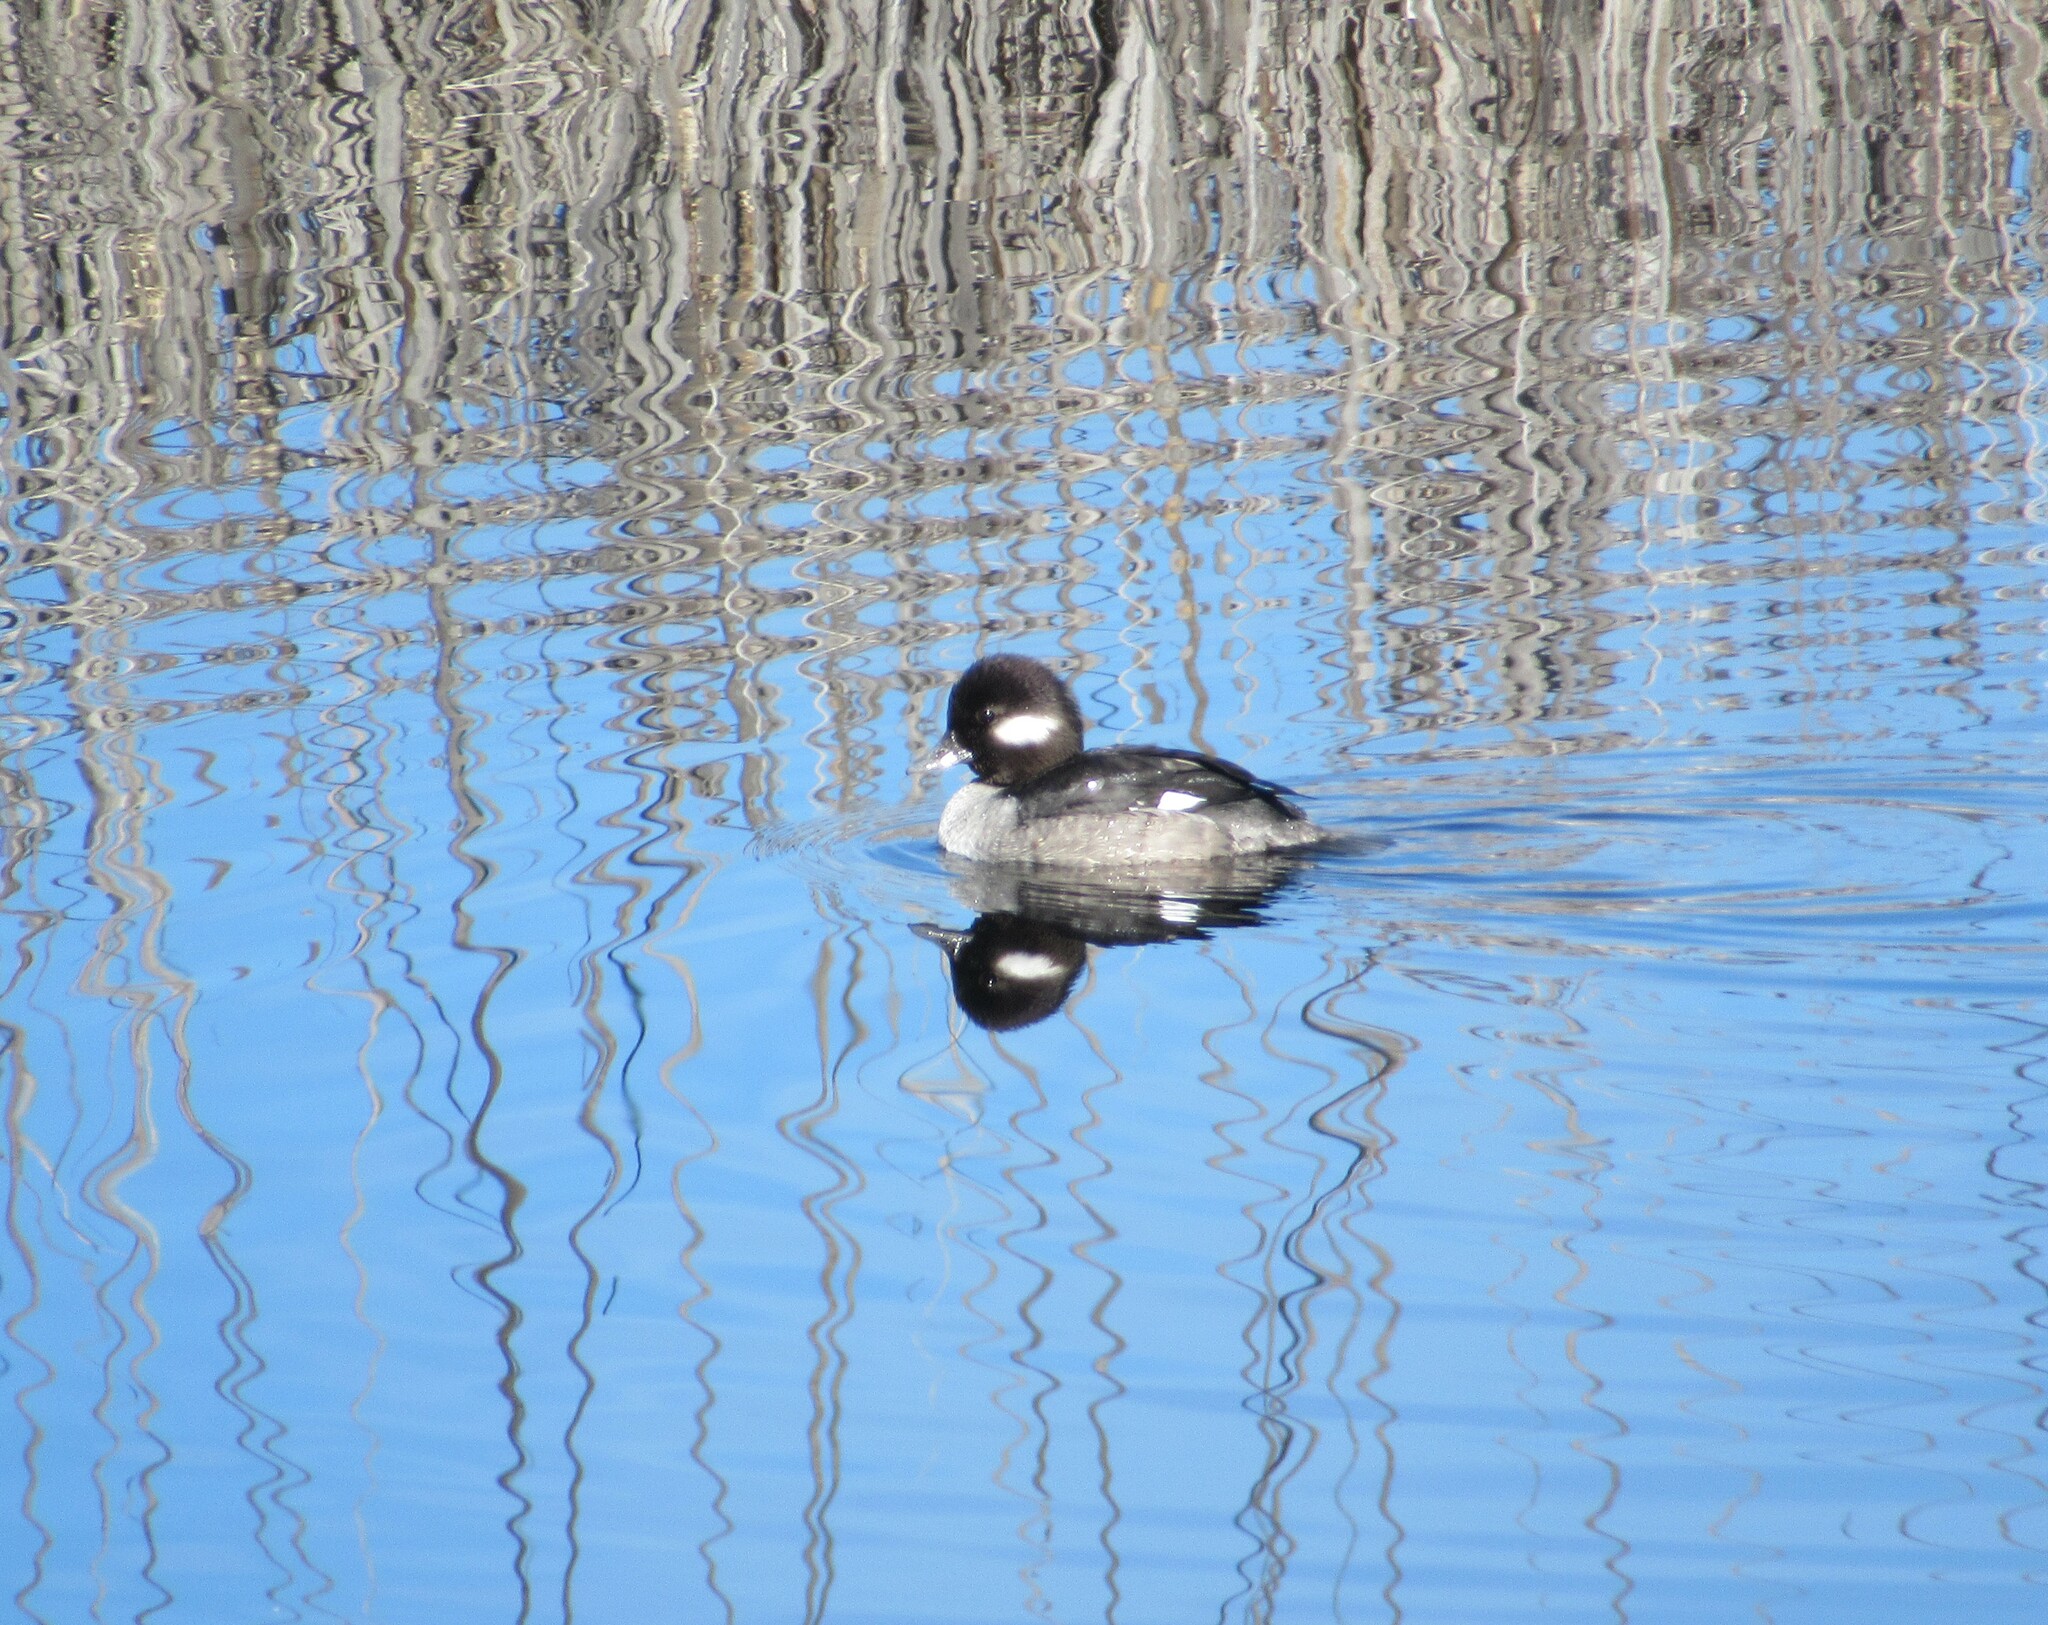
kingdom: Animalia
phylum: Chordata
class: Aves
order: Anseriformes
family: Anatidae
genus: Bucephala
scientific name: Bucephala albeola
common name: Bufflehead
